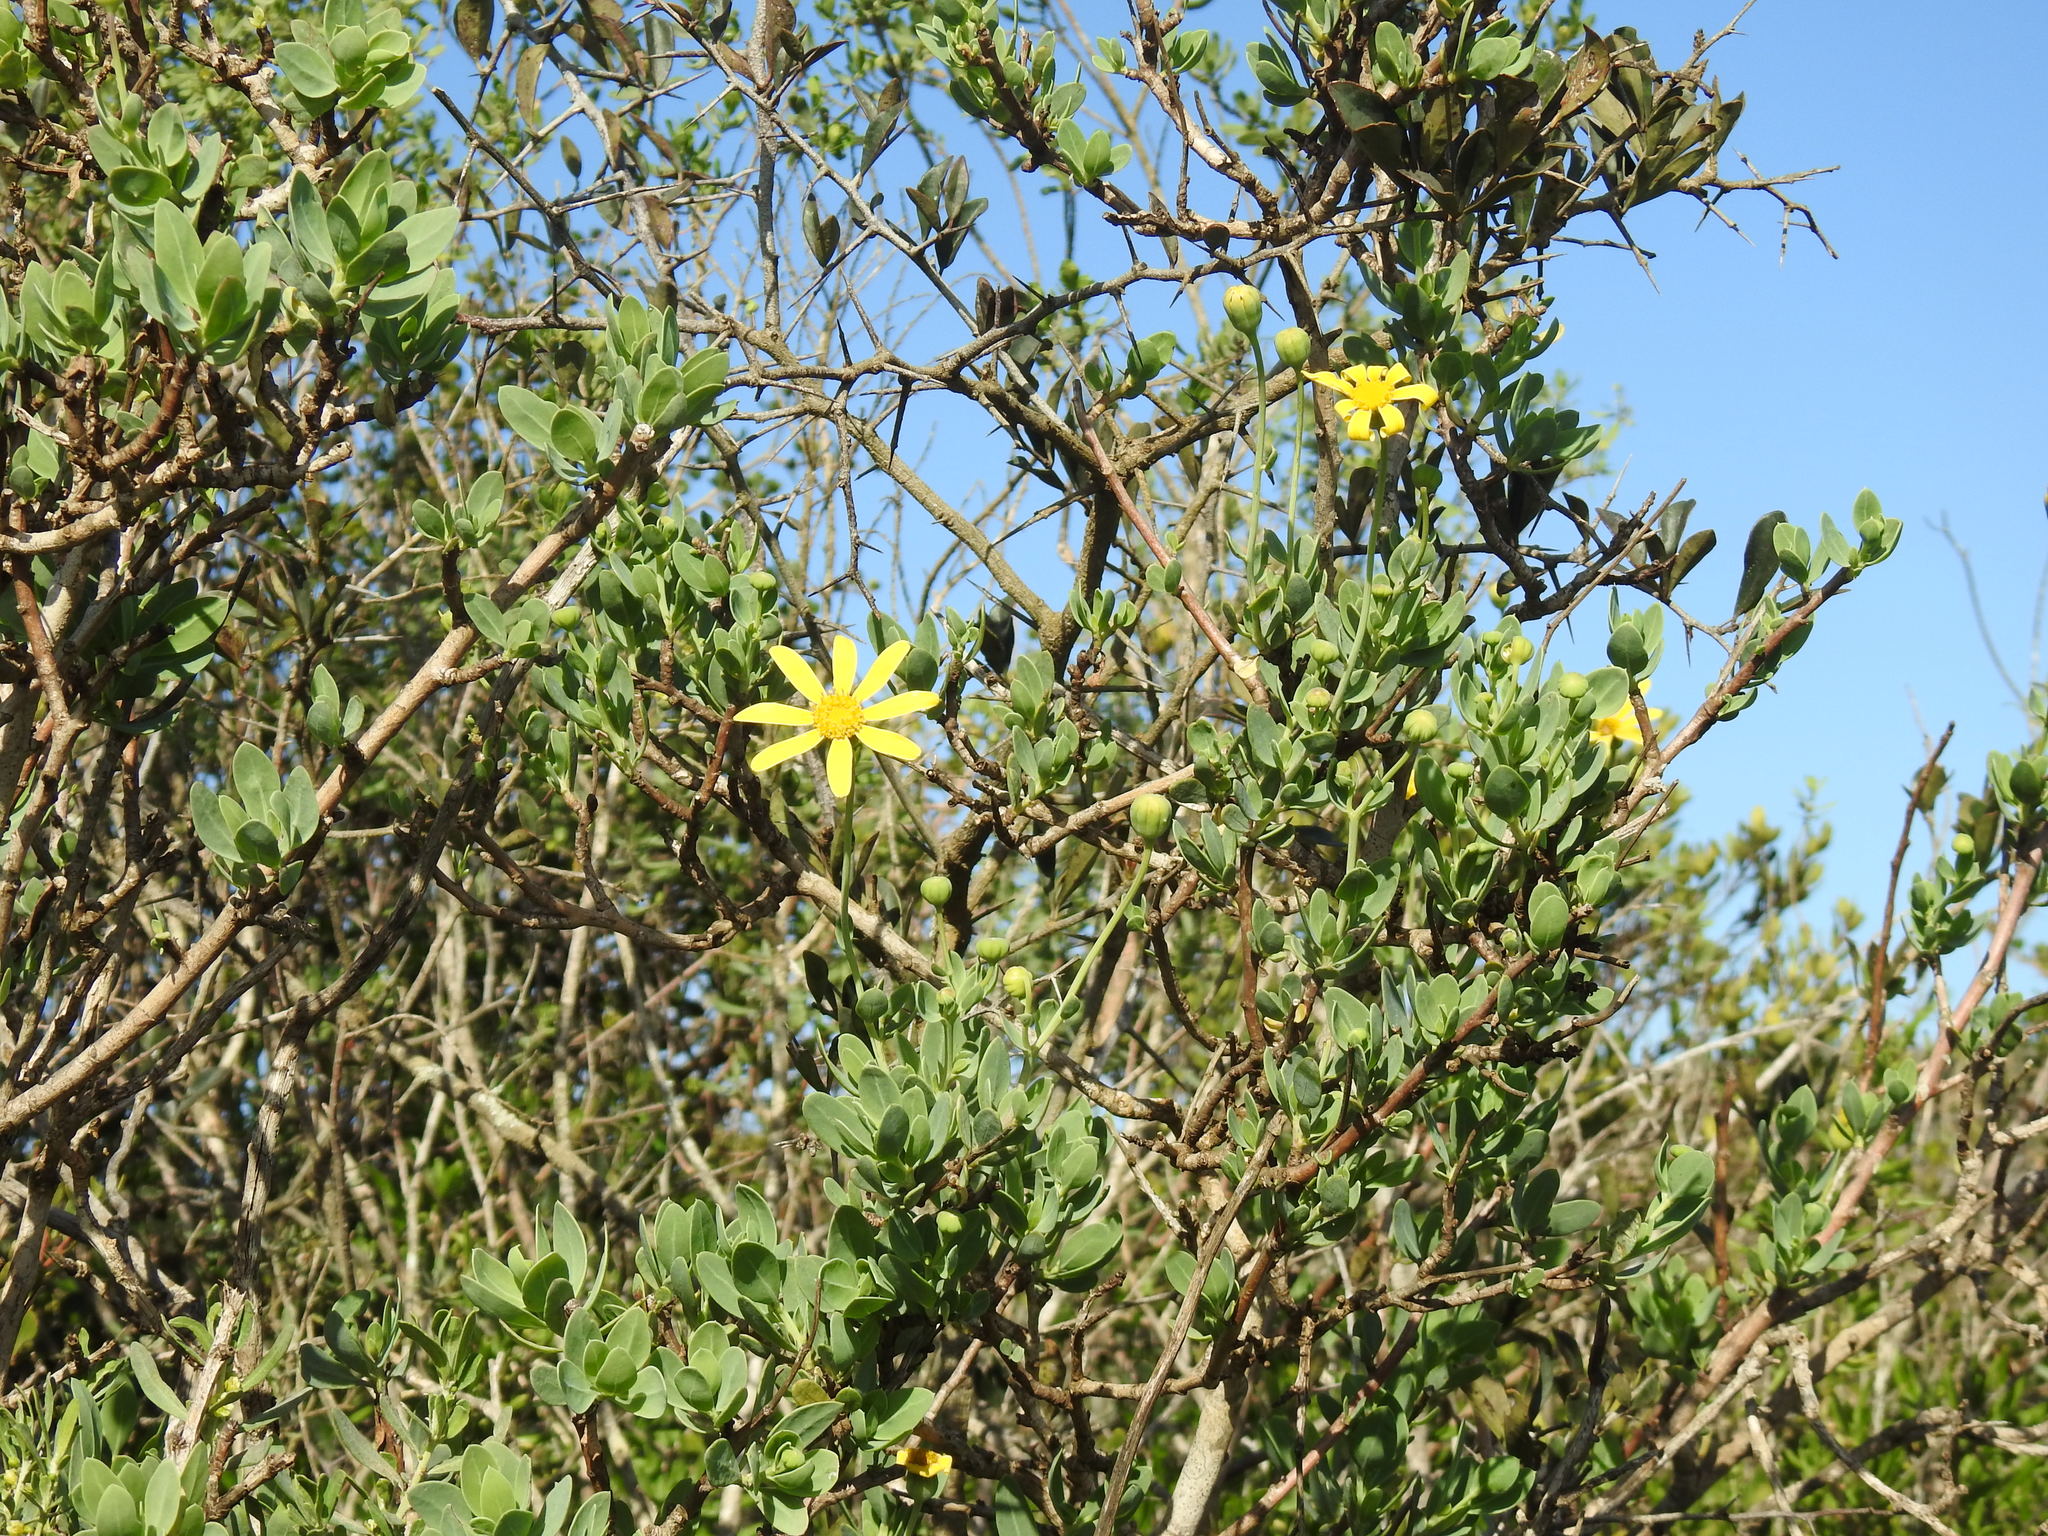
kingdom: Plantae
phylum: Tracheophyta
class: Magnoliopsida
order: Asterales
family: Asteraceae
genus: Osteospermum
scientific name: Osteospermum moniliferum
